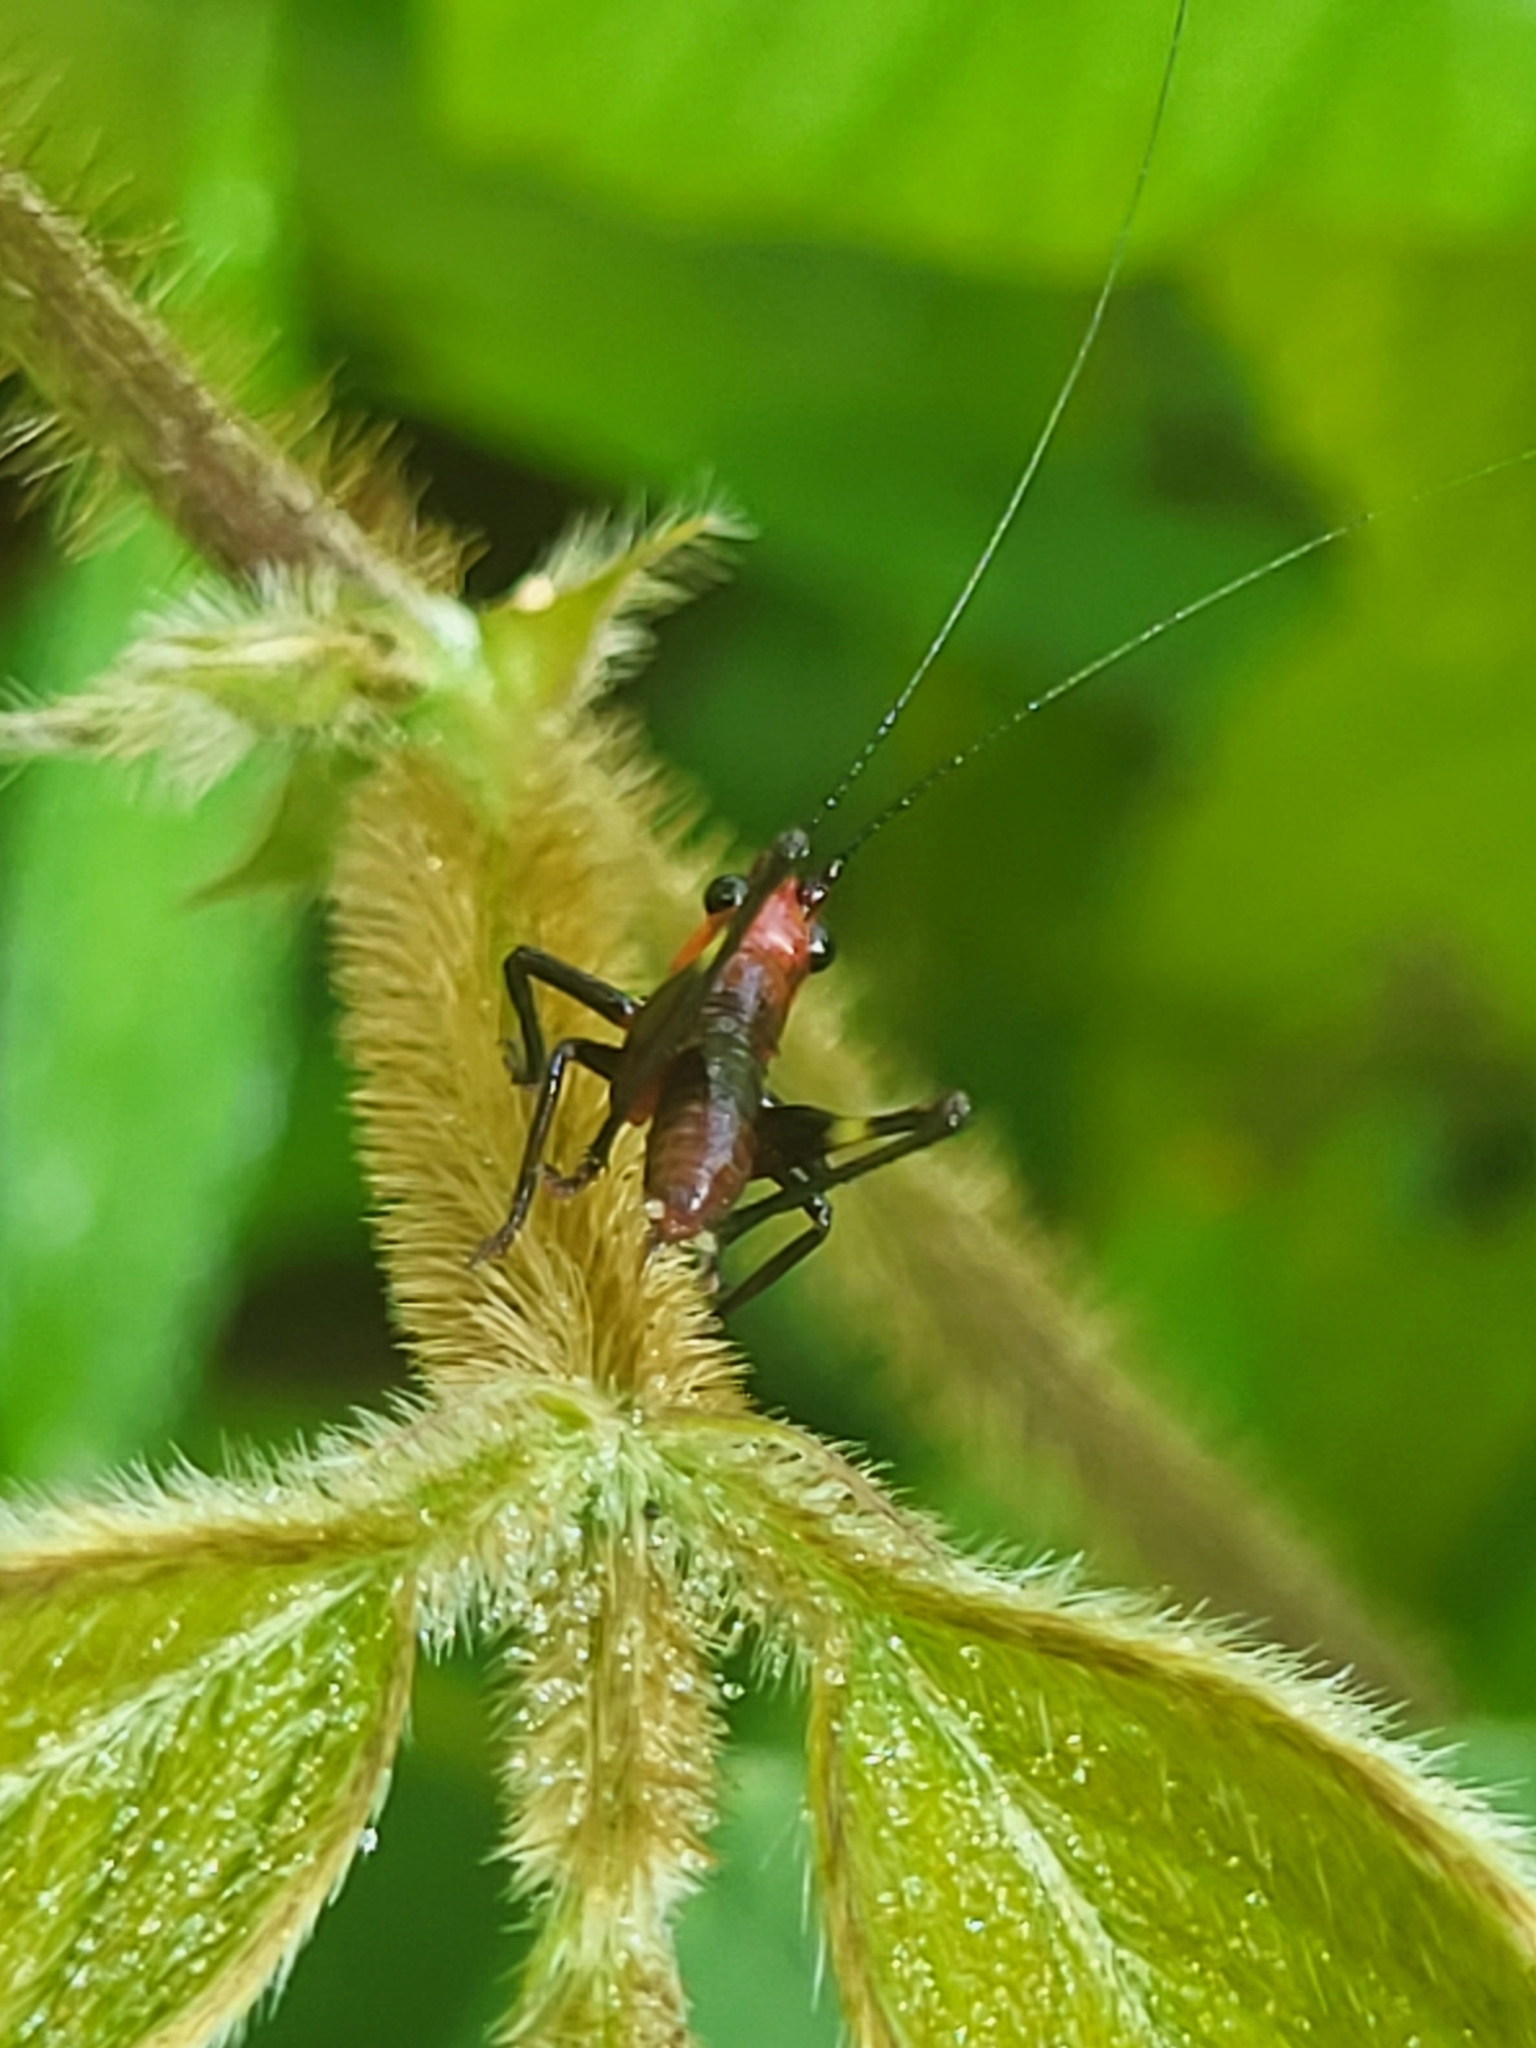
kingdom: Animalia
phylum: Arthropoda
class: Insecta
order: Orthoptera
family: Tettigoniidae
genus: Conocephalus
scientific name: Conocephalus melaenus
